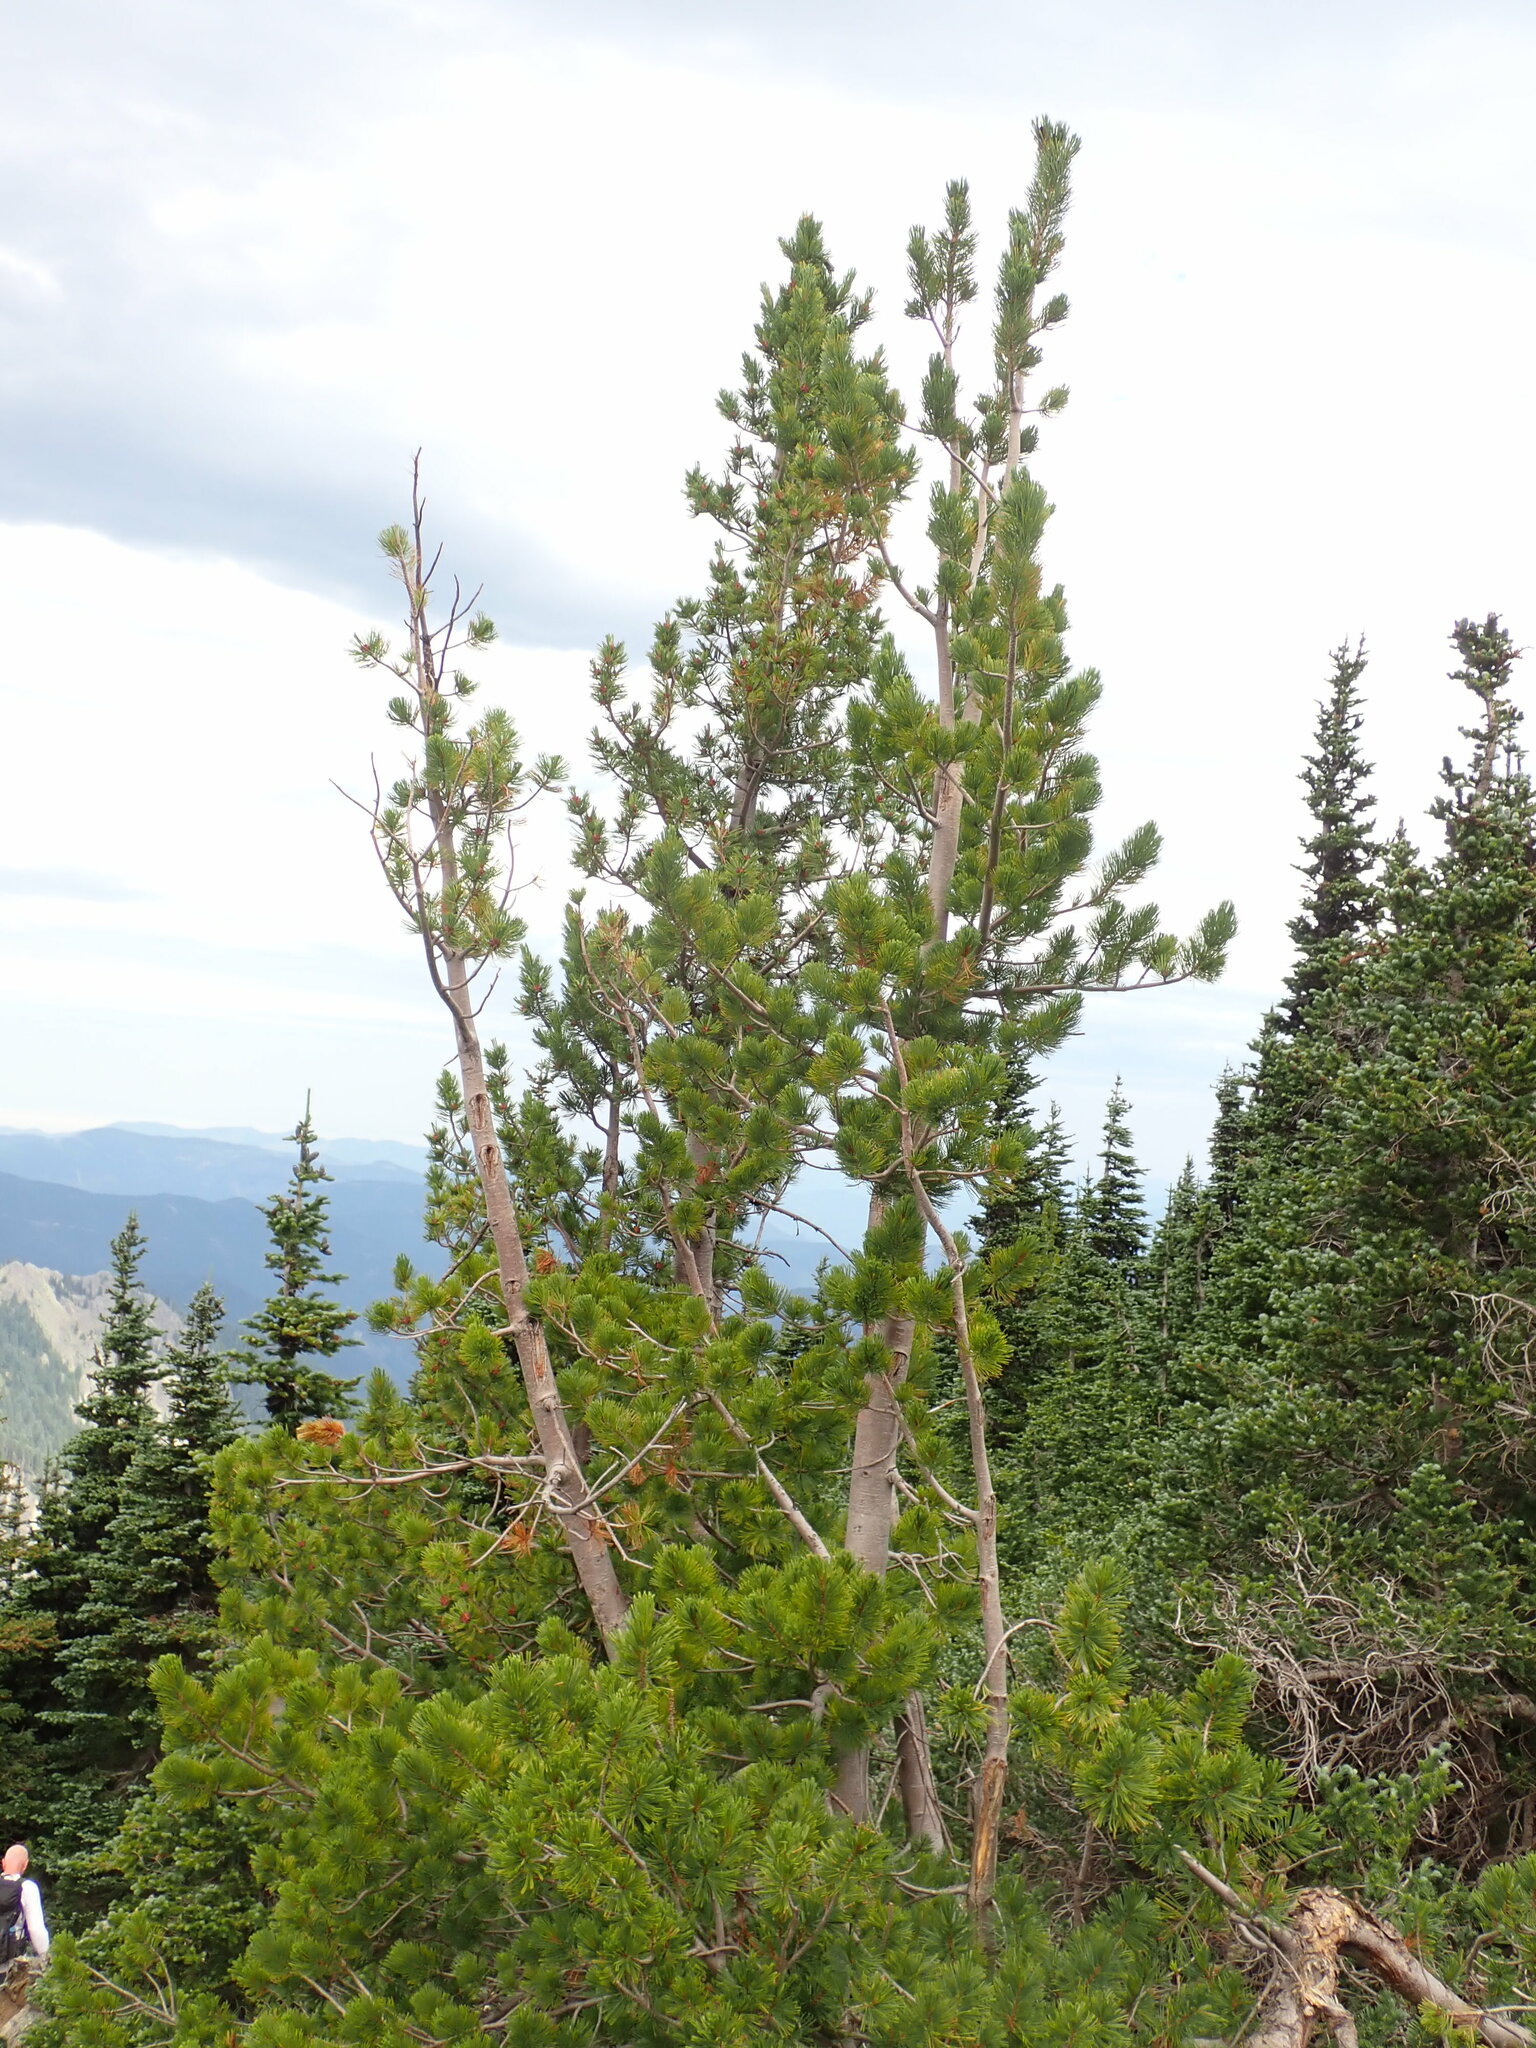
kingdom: Plantae
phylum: Tracheophyta
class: Pinopsida
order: Pinales
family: Pinaceae
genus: Pinus
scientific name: Pinus albicaulis
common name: Whitebark pine
